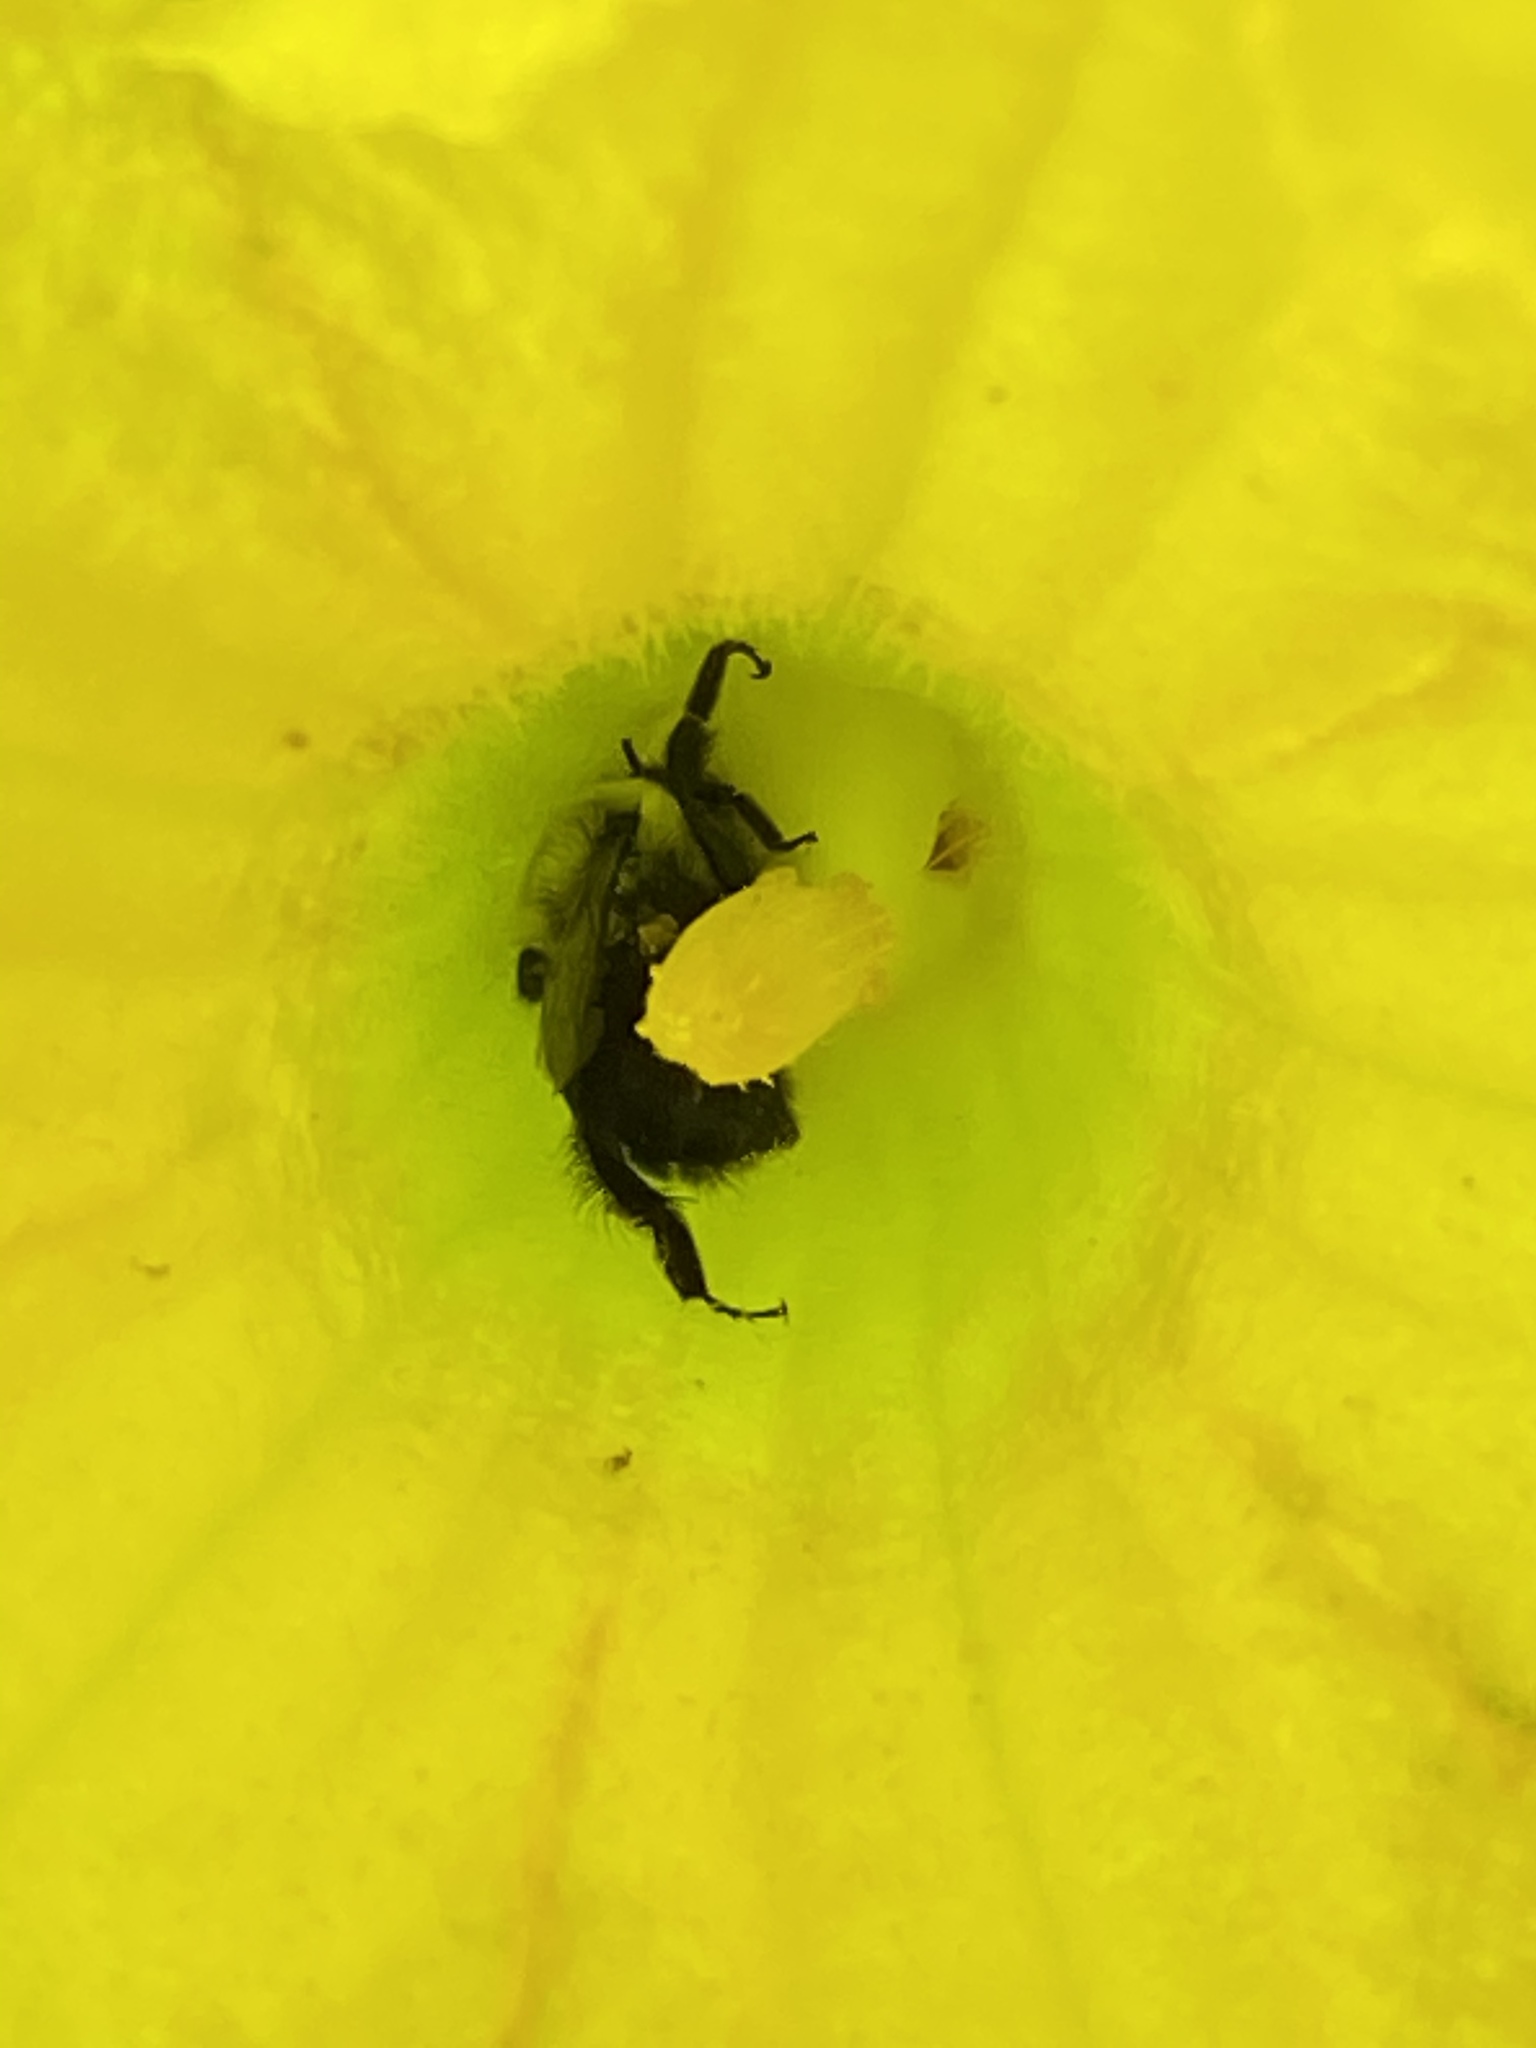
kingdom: Animalia
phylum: Arthropoda
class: Insecta
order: Hymenoptera
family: Apidae
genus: Bombus
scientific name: Bombus impatiens
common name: Common eastern bumble bee
